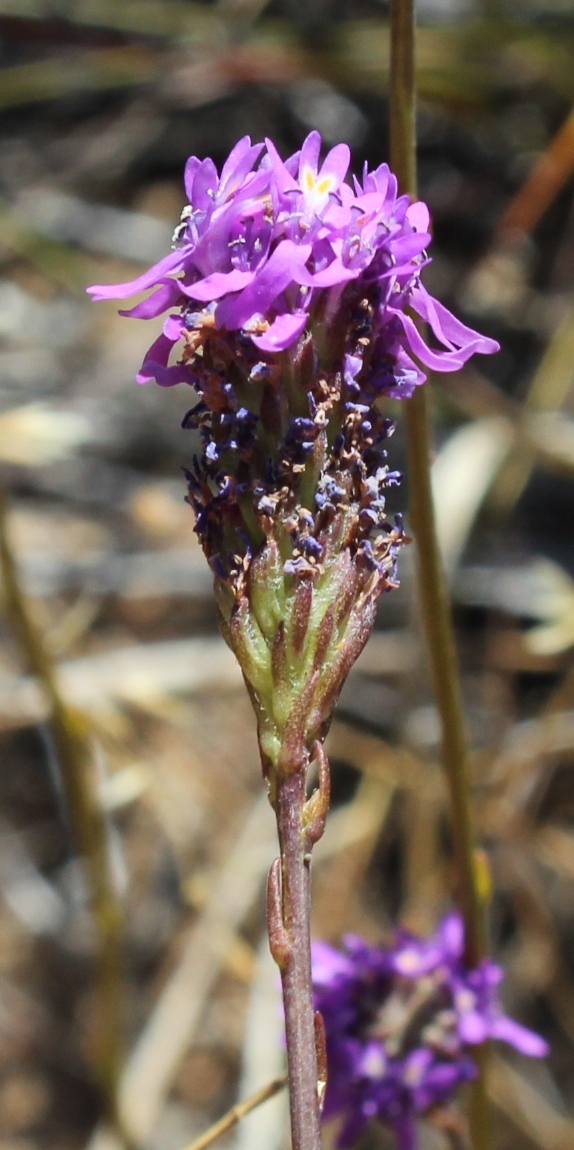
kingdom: Plantae
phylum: Tracheophyta
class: Magnoliopsida
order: Lamiales
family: Scrophulariaceae
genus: Pseudoselago
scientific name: Pseudoselago similis
